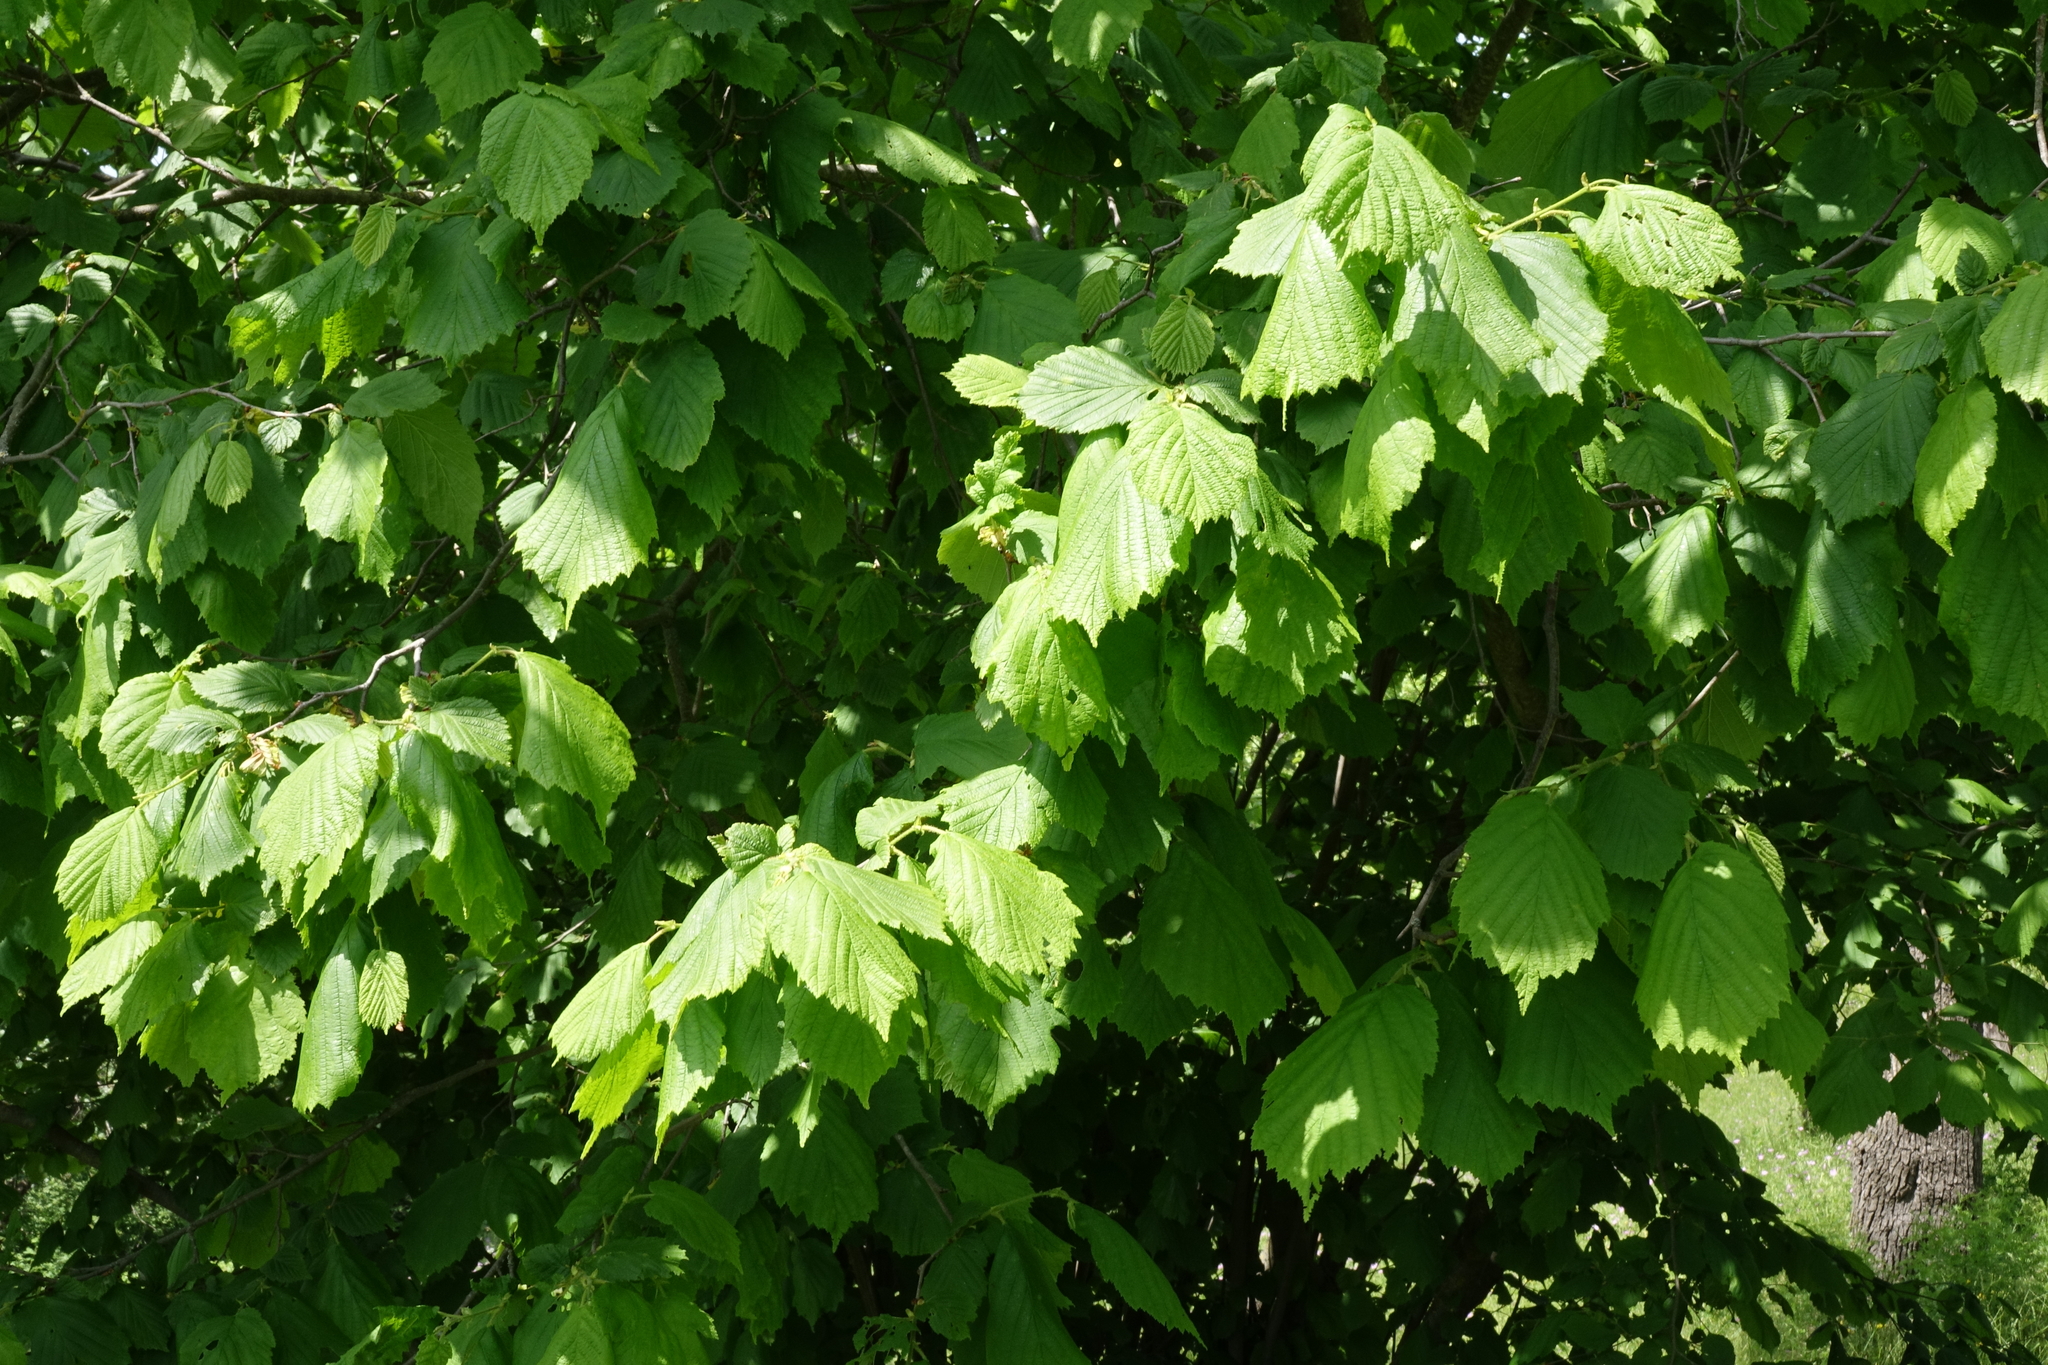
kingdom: Plantae
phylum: Tracheophyta
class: Magnoliopsida
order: Fagales
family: Betulaceae
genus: Corylus
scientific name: Corylus avellana
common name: European hazel
